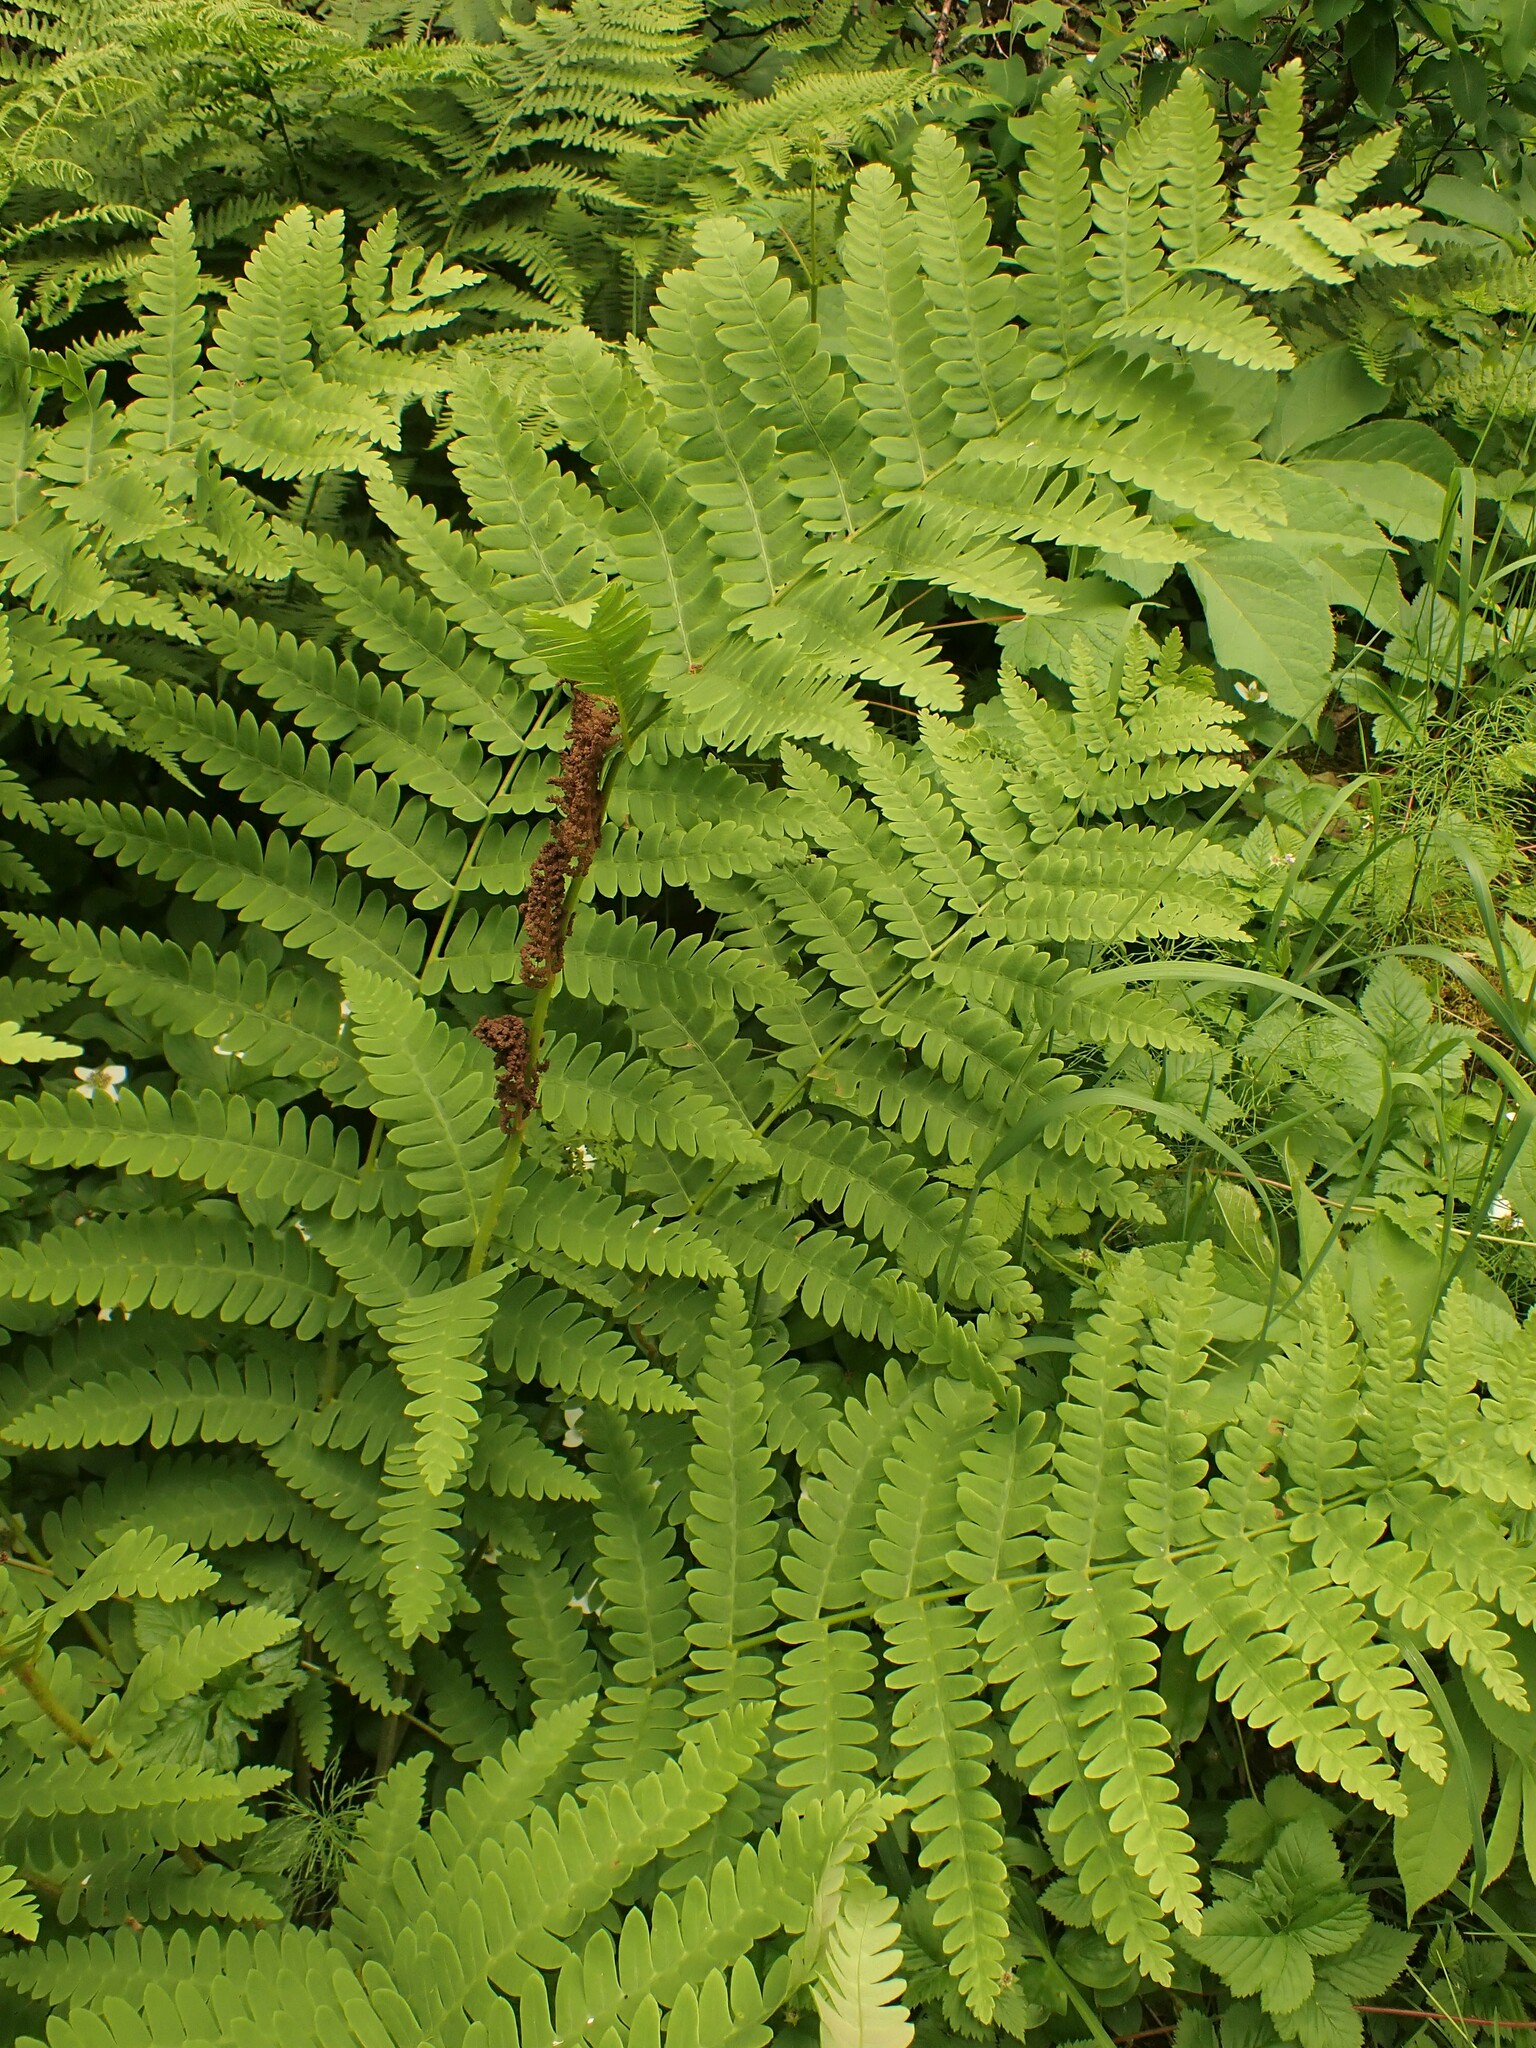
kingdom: Plantae
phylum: Tracheophyta
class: Polypodiopsida
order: Osmundales
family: Osmundaceae
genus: Claytosmunda
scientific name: Claytosmunda claytoniana
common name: Clayton's fern
